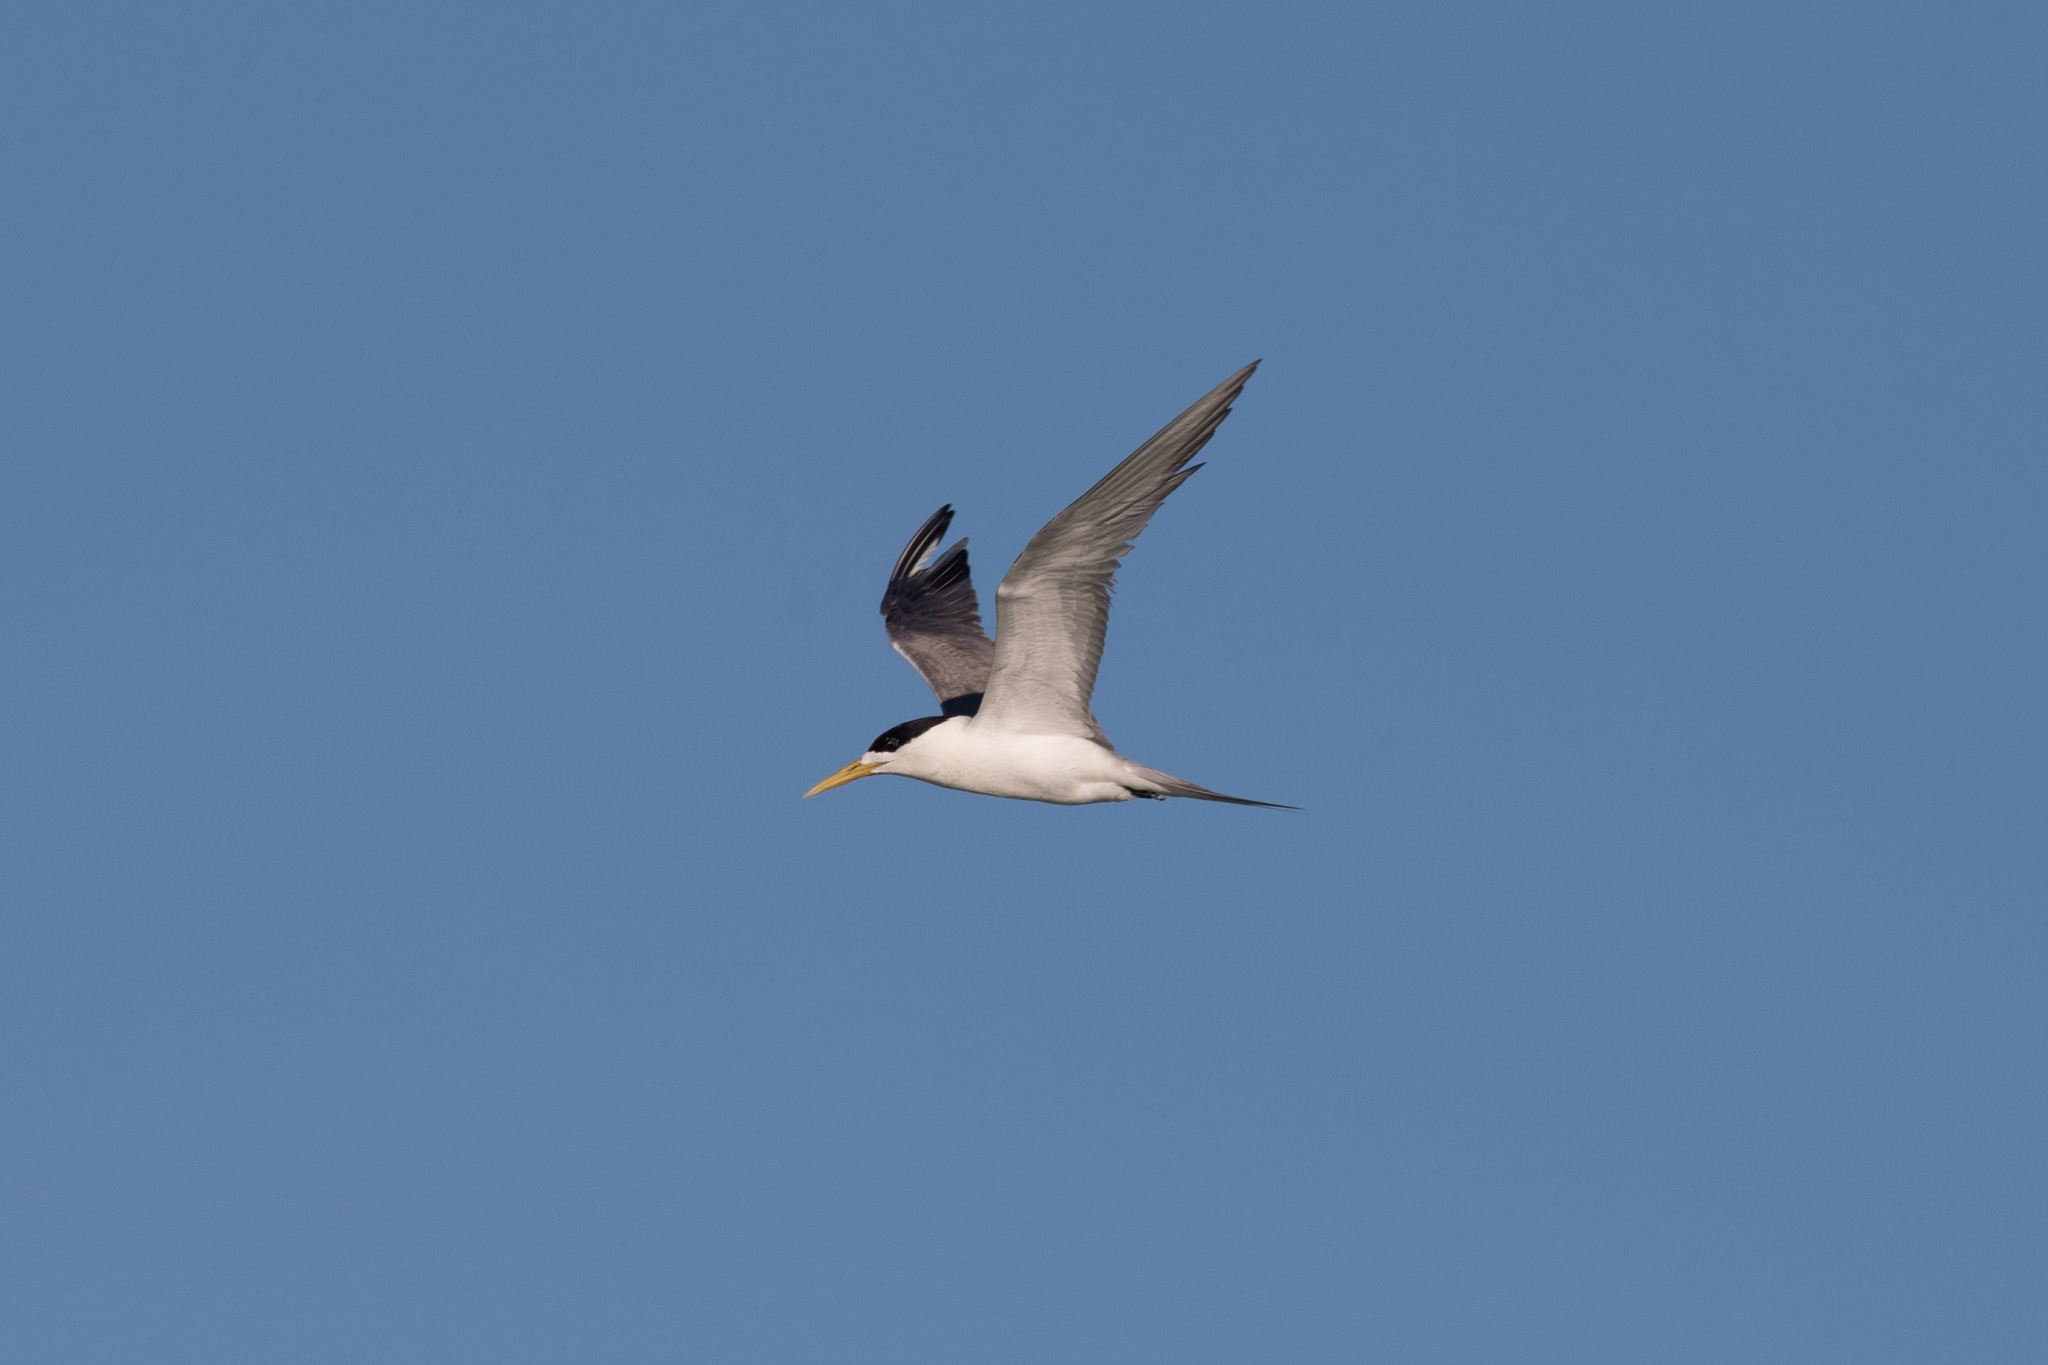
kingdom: Animalia
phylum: Chordata
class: Aves
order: Charadriiformes
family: Laridae
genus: Thalasseus
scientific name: Thalasseus bergii
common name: Greater crested tern
